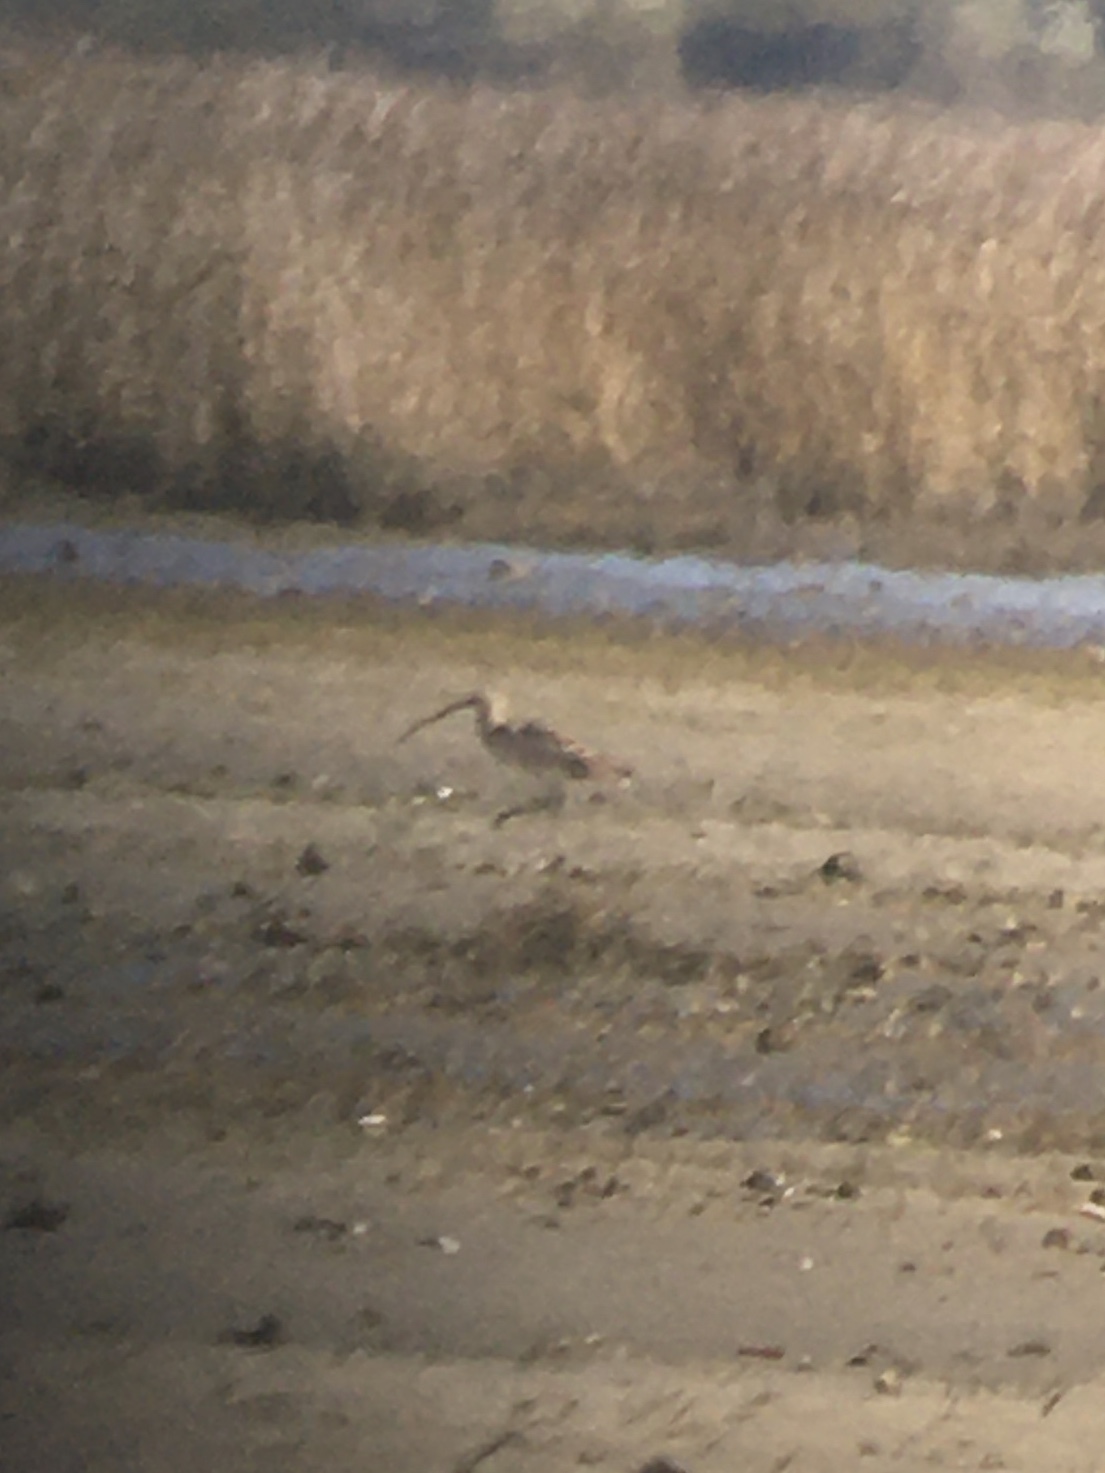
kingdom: Animalia
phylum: Chordata
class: Aves
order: Charadriiformes
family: Scolopacidae
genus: Numenius
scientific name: Numenius americanus
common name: Long-billed curlew
